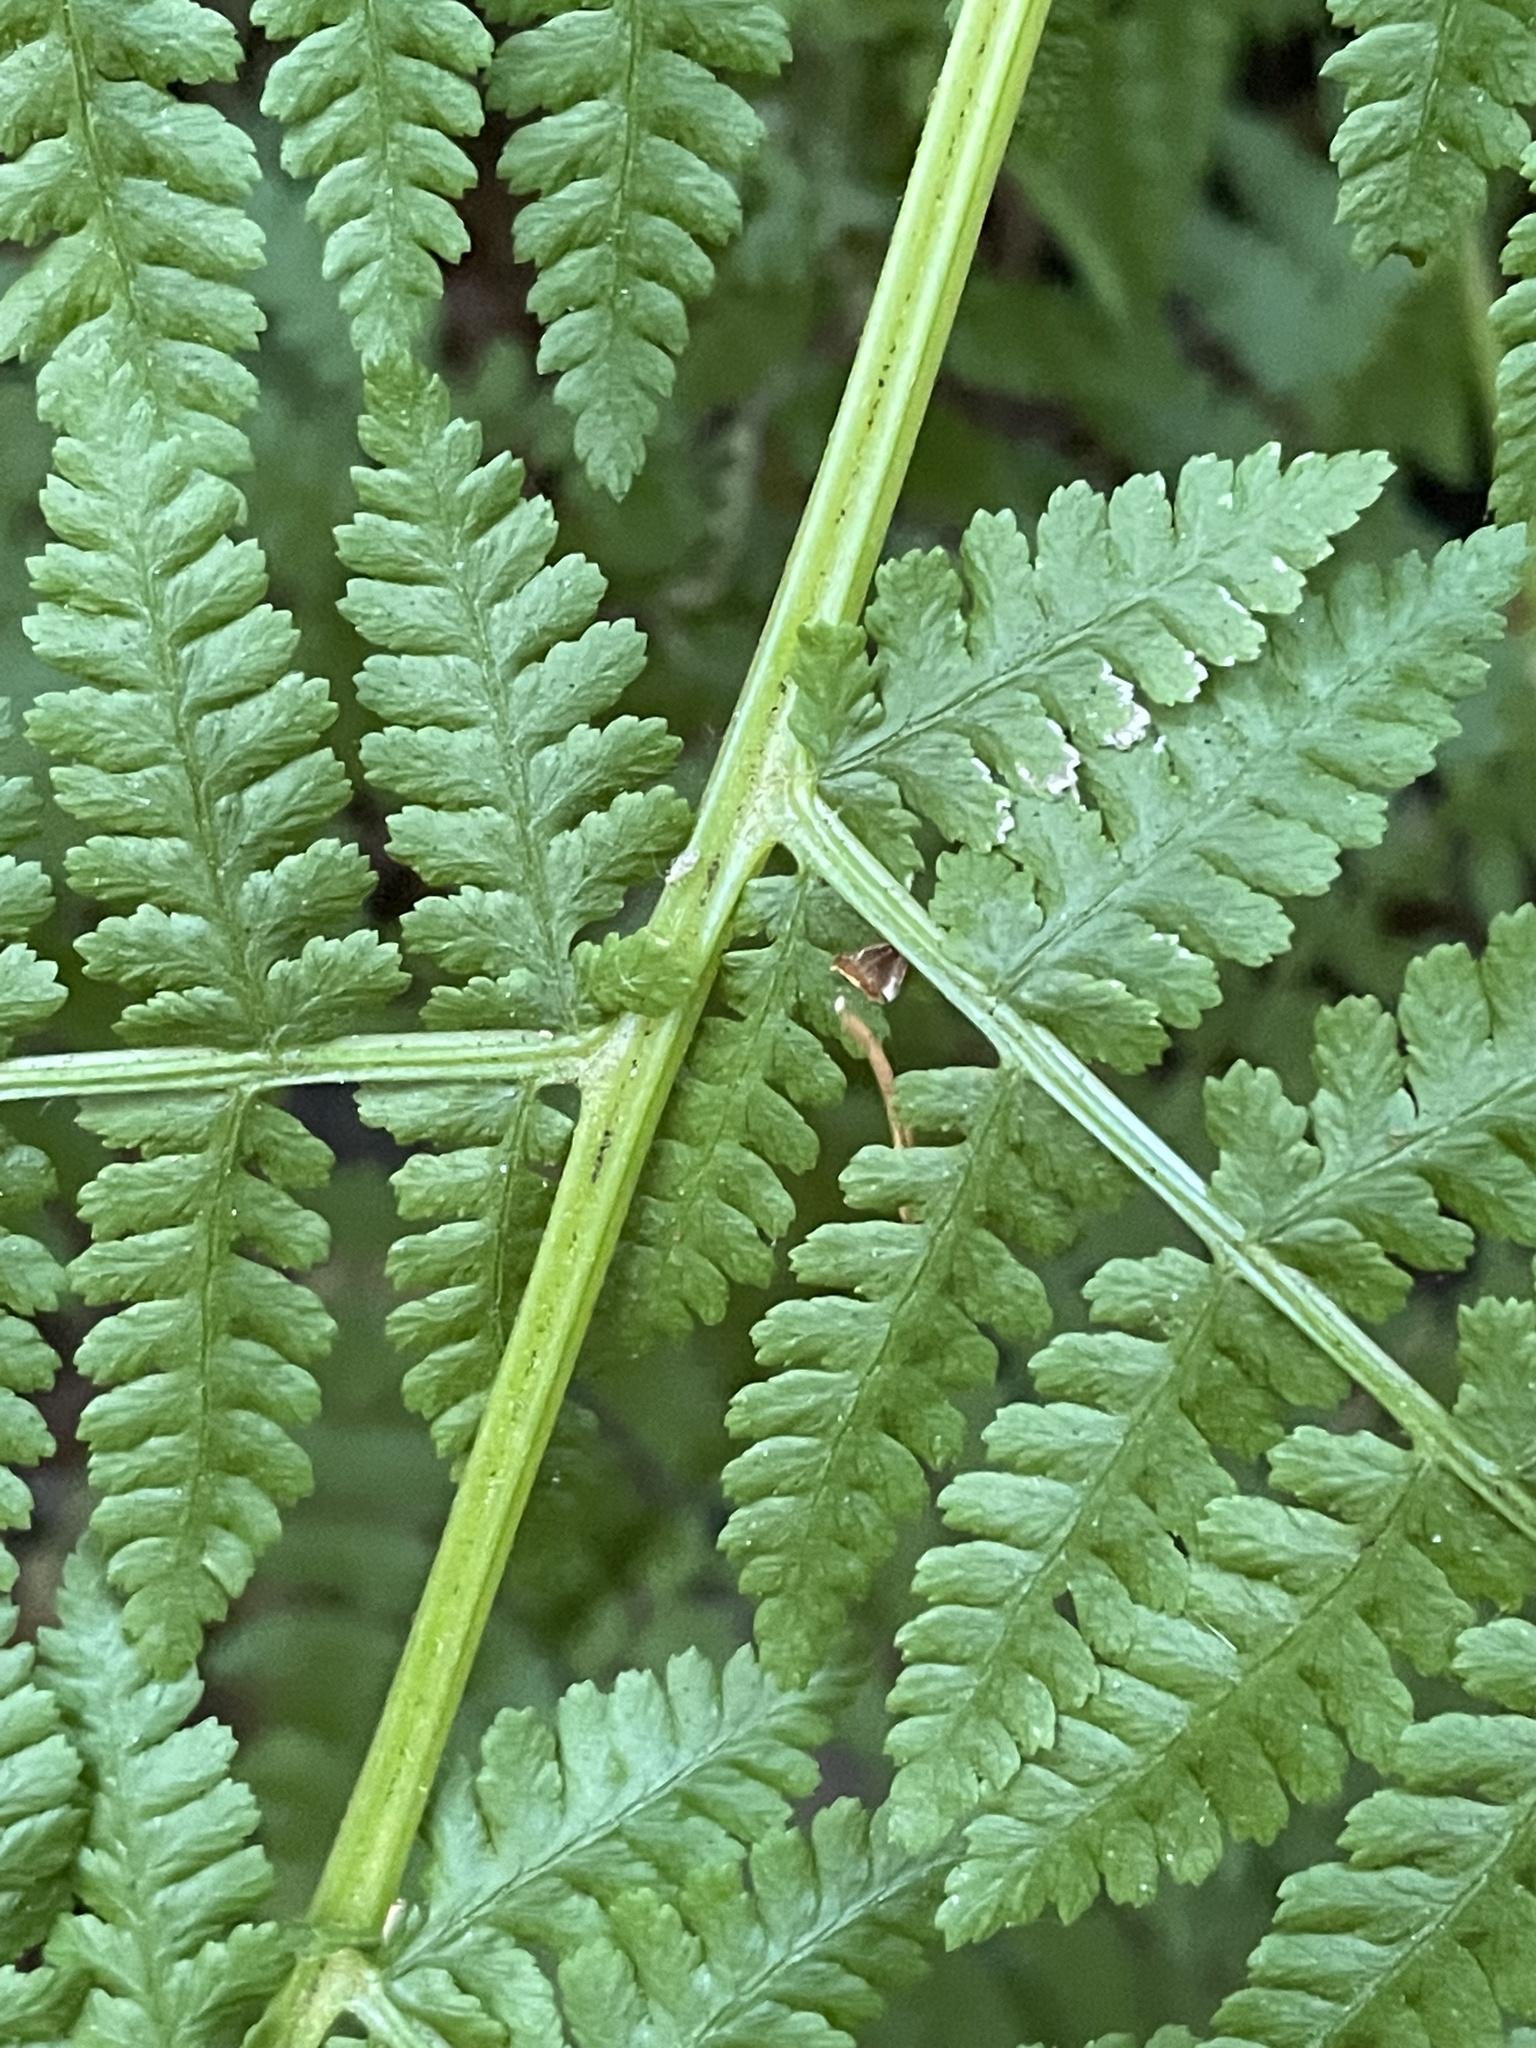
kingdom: Plantae
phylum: Tracheophyta
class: Polypodiopsida
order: Polypodiales
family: Athyriaceae
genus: Athyrium
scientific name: Athyrium filix-femina
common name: Lady fern
